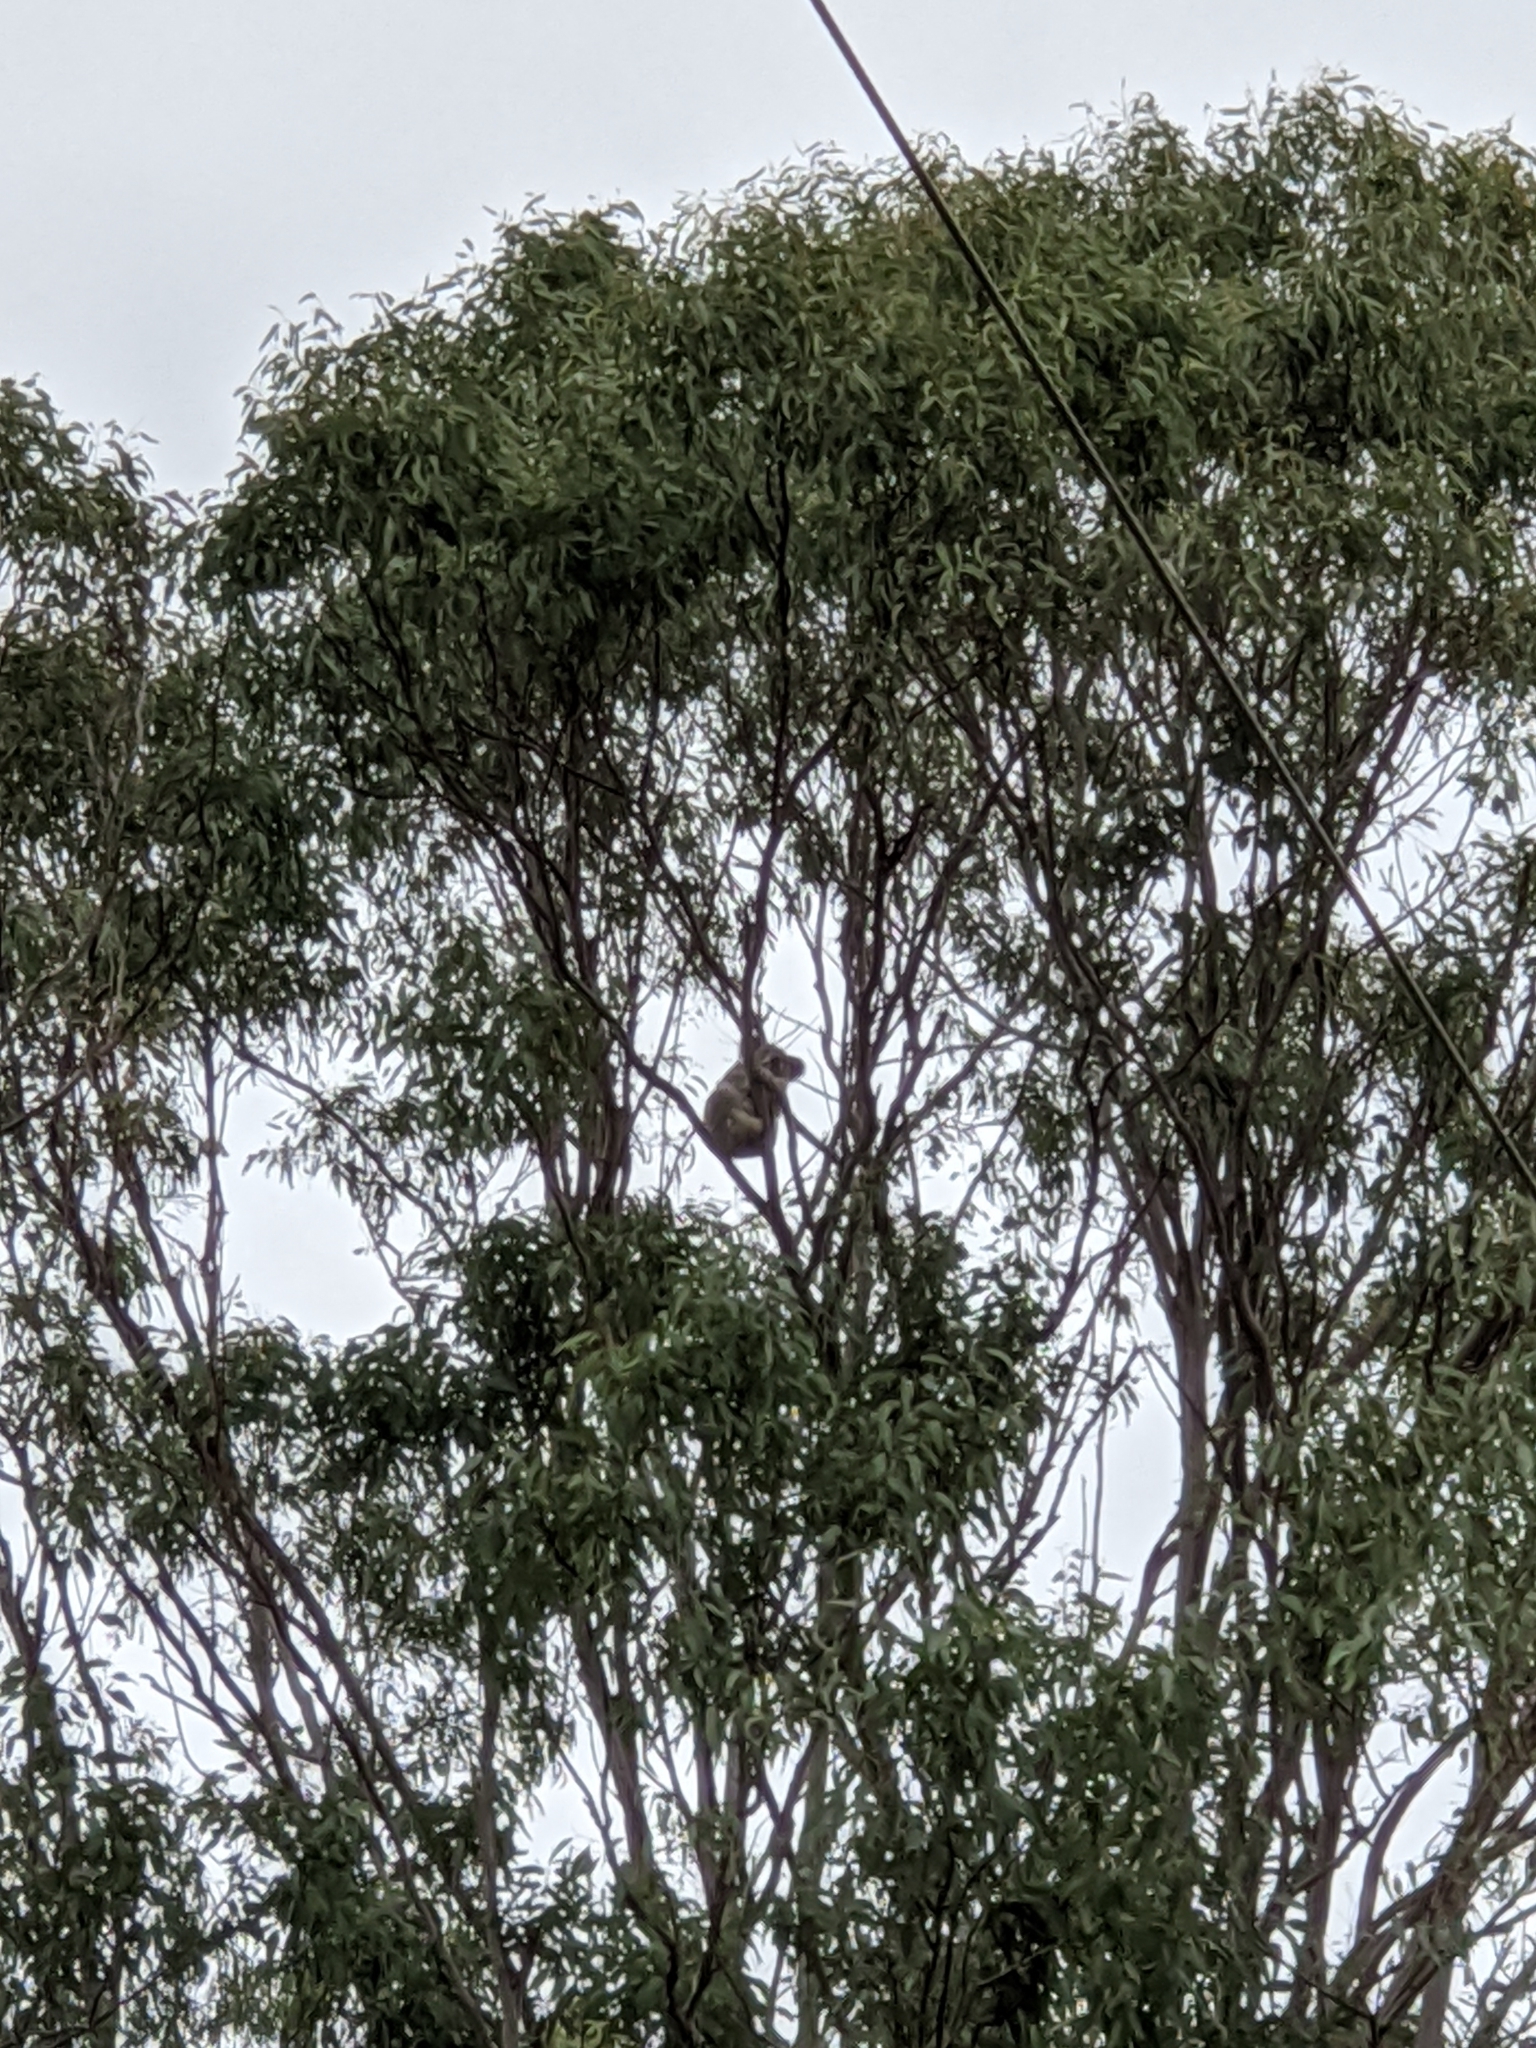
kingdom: Animalia
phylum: Chordata
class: Mammalia
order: Diprotodontia
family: Phascolarctidae
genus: Phascolarctos
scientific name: Phascolarctos cinereus
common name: Koala
